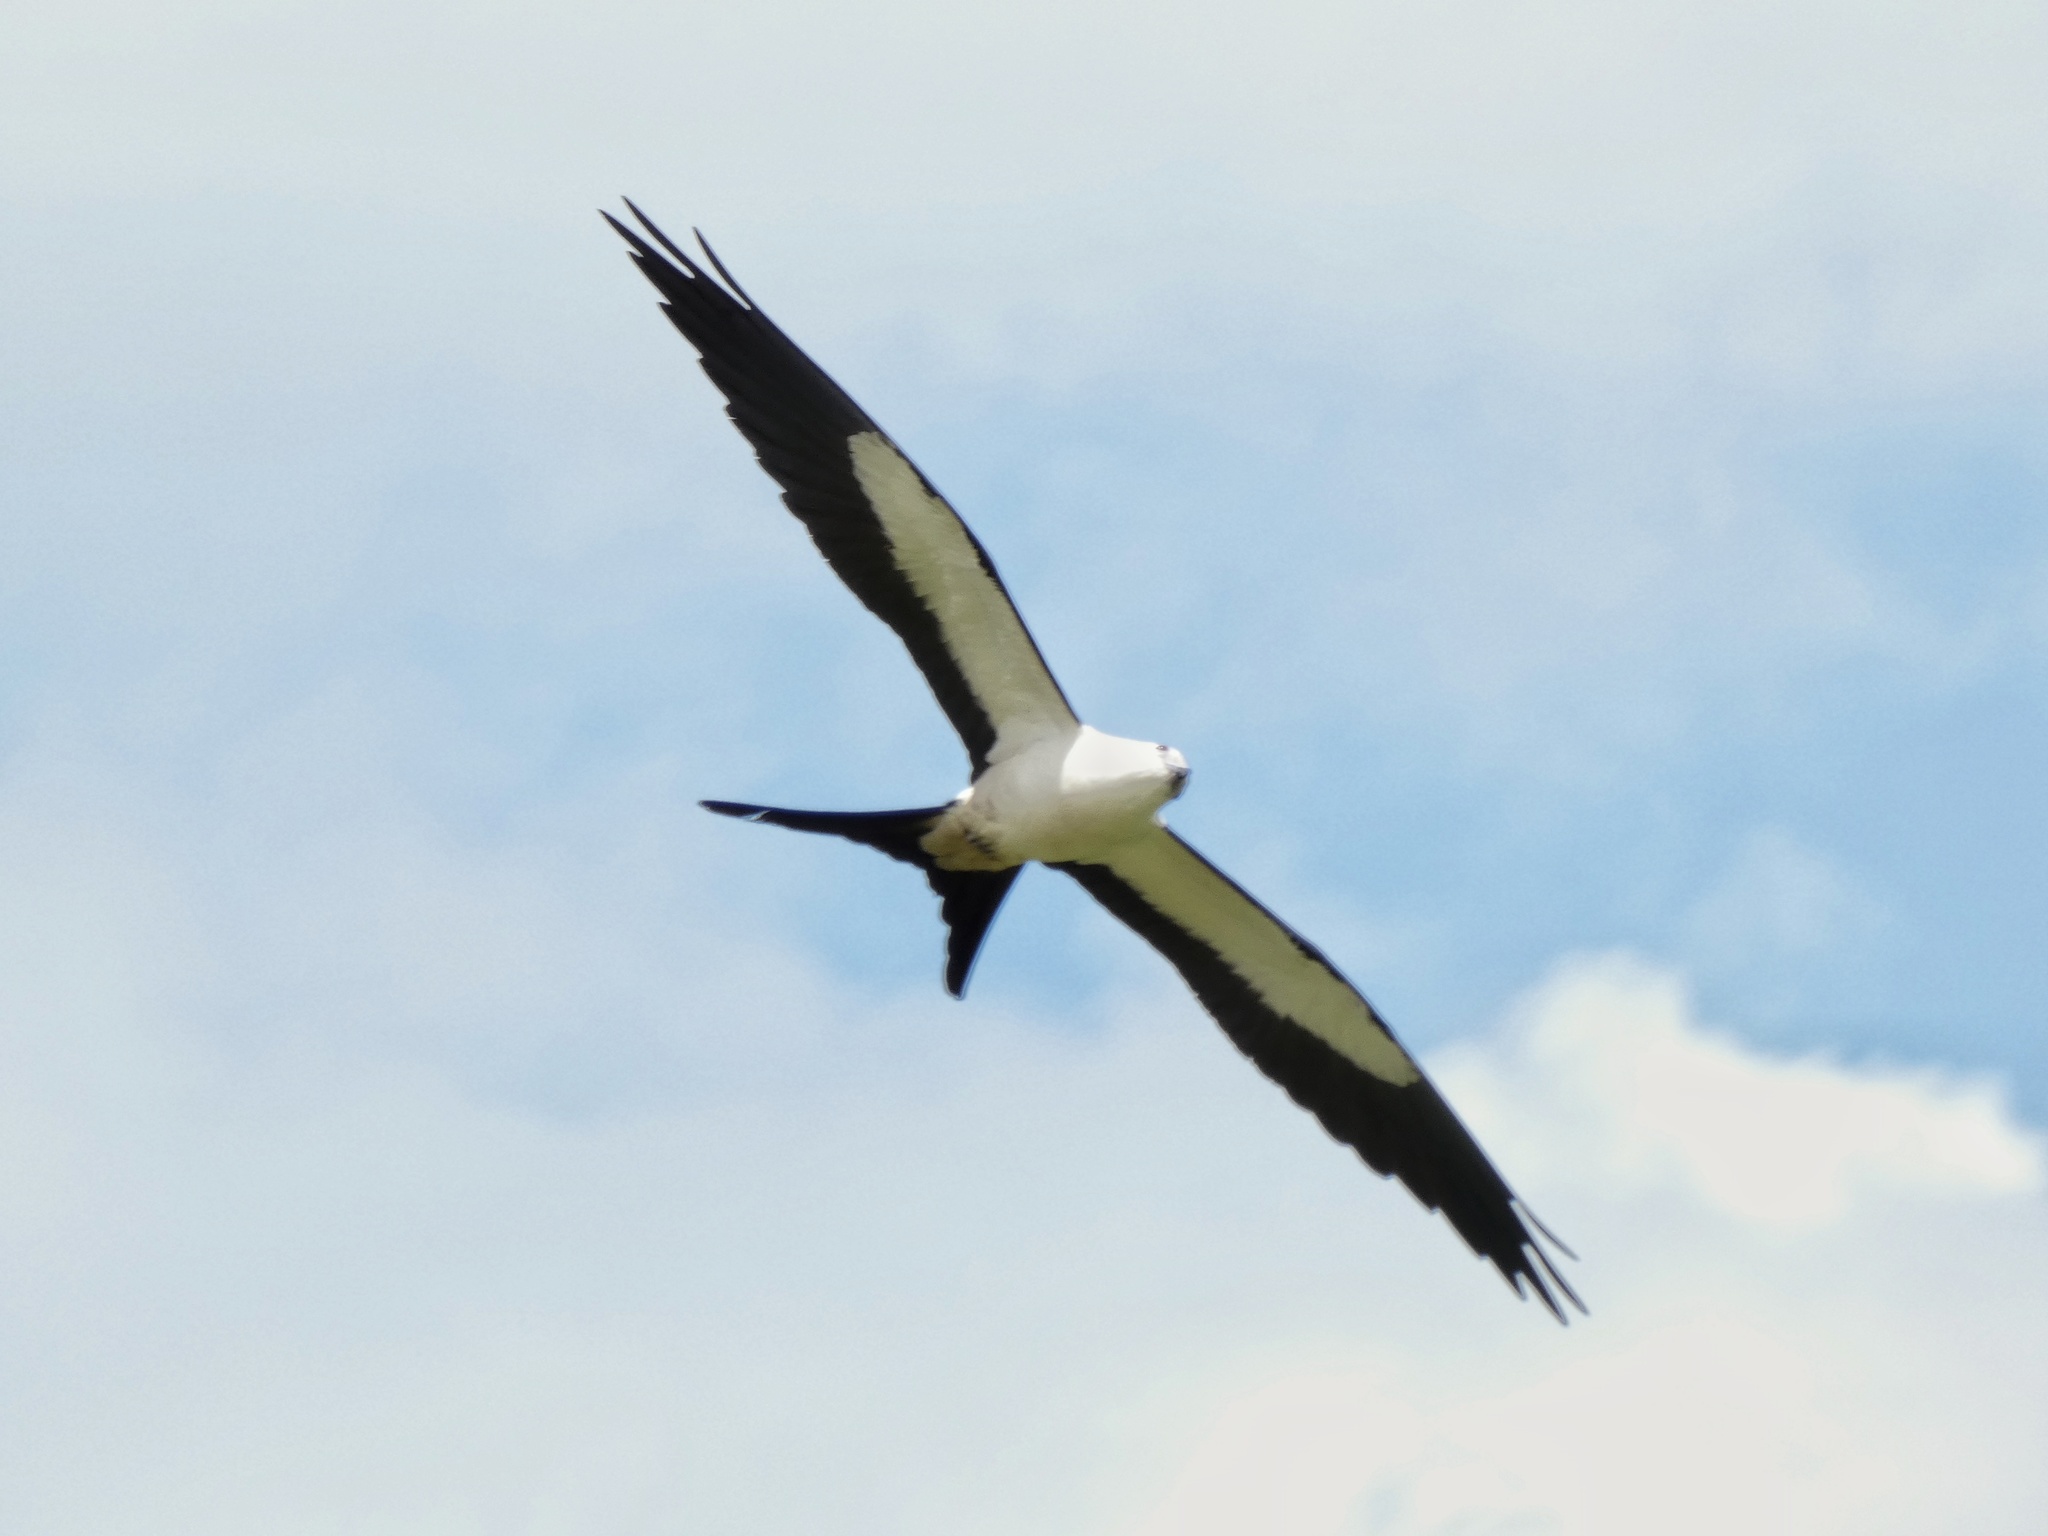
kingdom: Animalia
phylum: Chordata
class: Aves
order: Accipitriformes
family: Accipitridae
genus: Elanoides
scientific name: Elanoides forficatus
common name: Swallow-tailed kite
